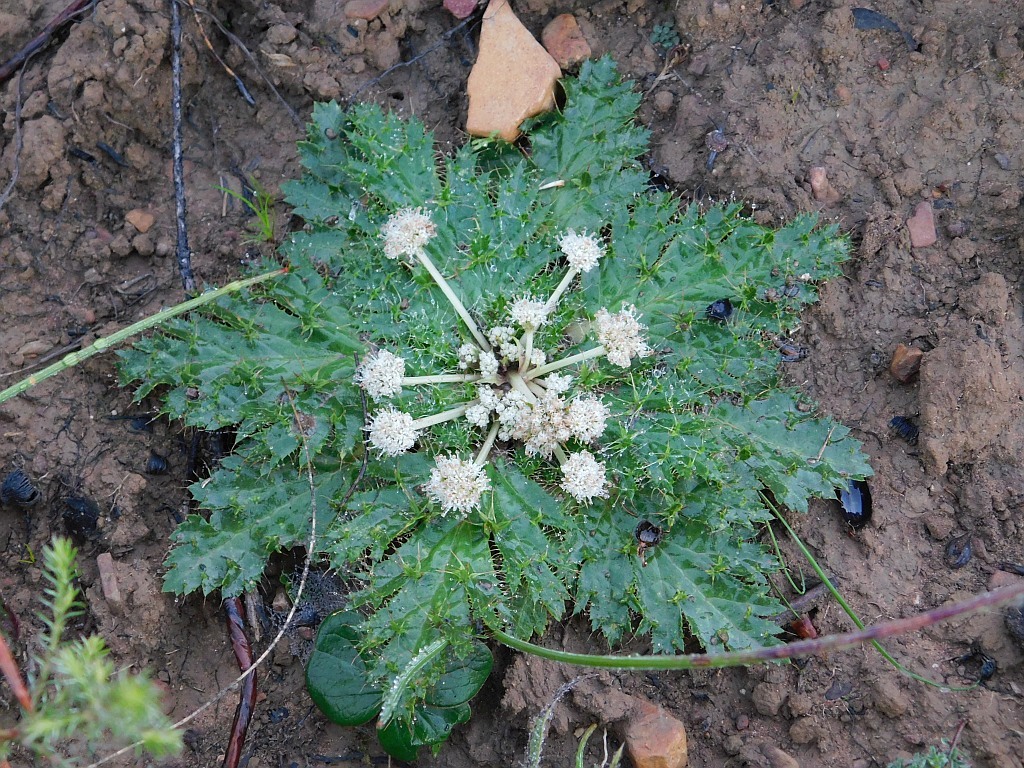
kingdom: Plantae
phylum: Tracheophyta
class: Magnoliopsida
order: Apiales
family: Apiaceae
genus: Arctopus
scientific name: Arctopus echinatus
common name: Platdoring
